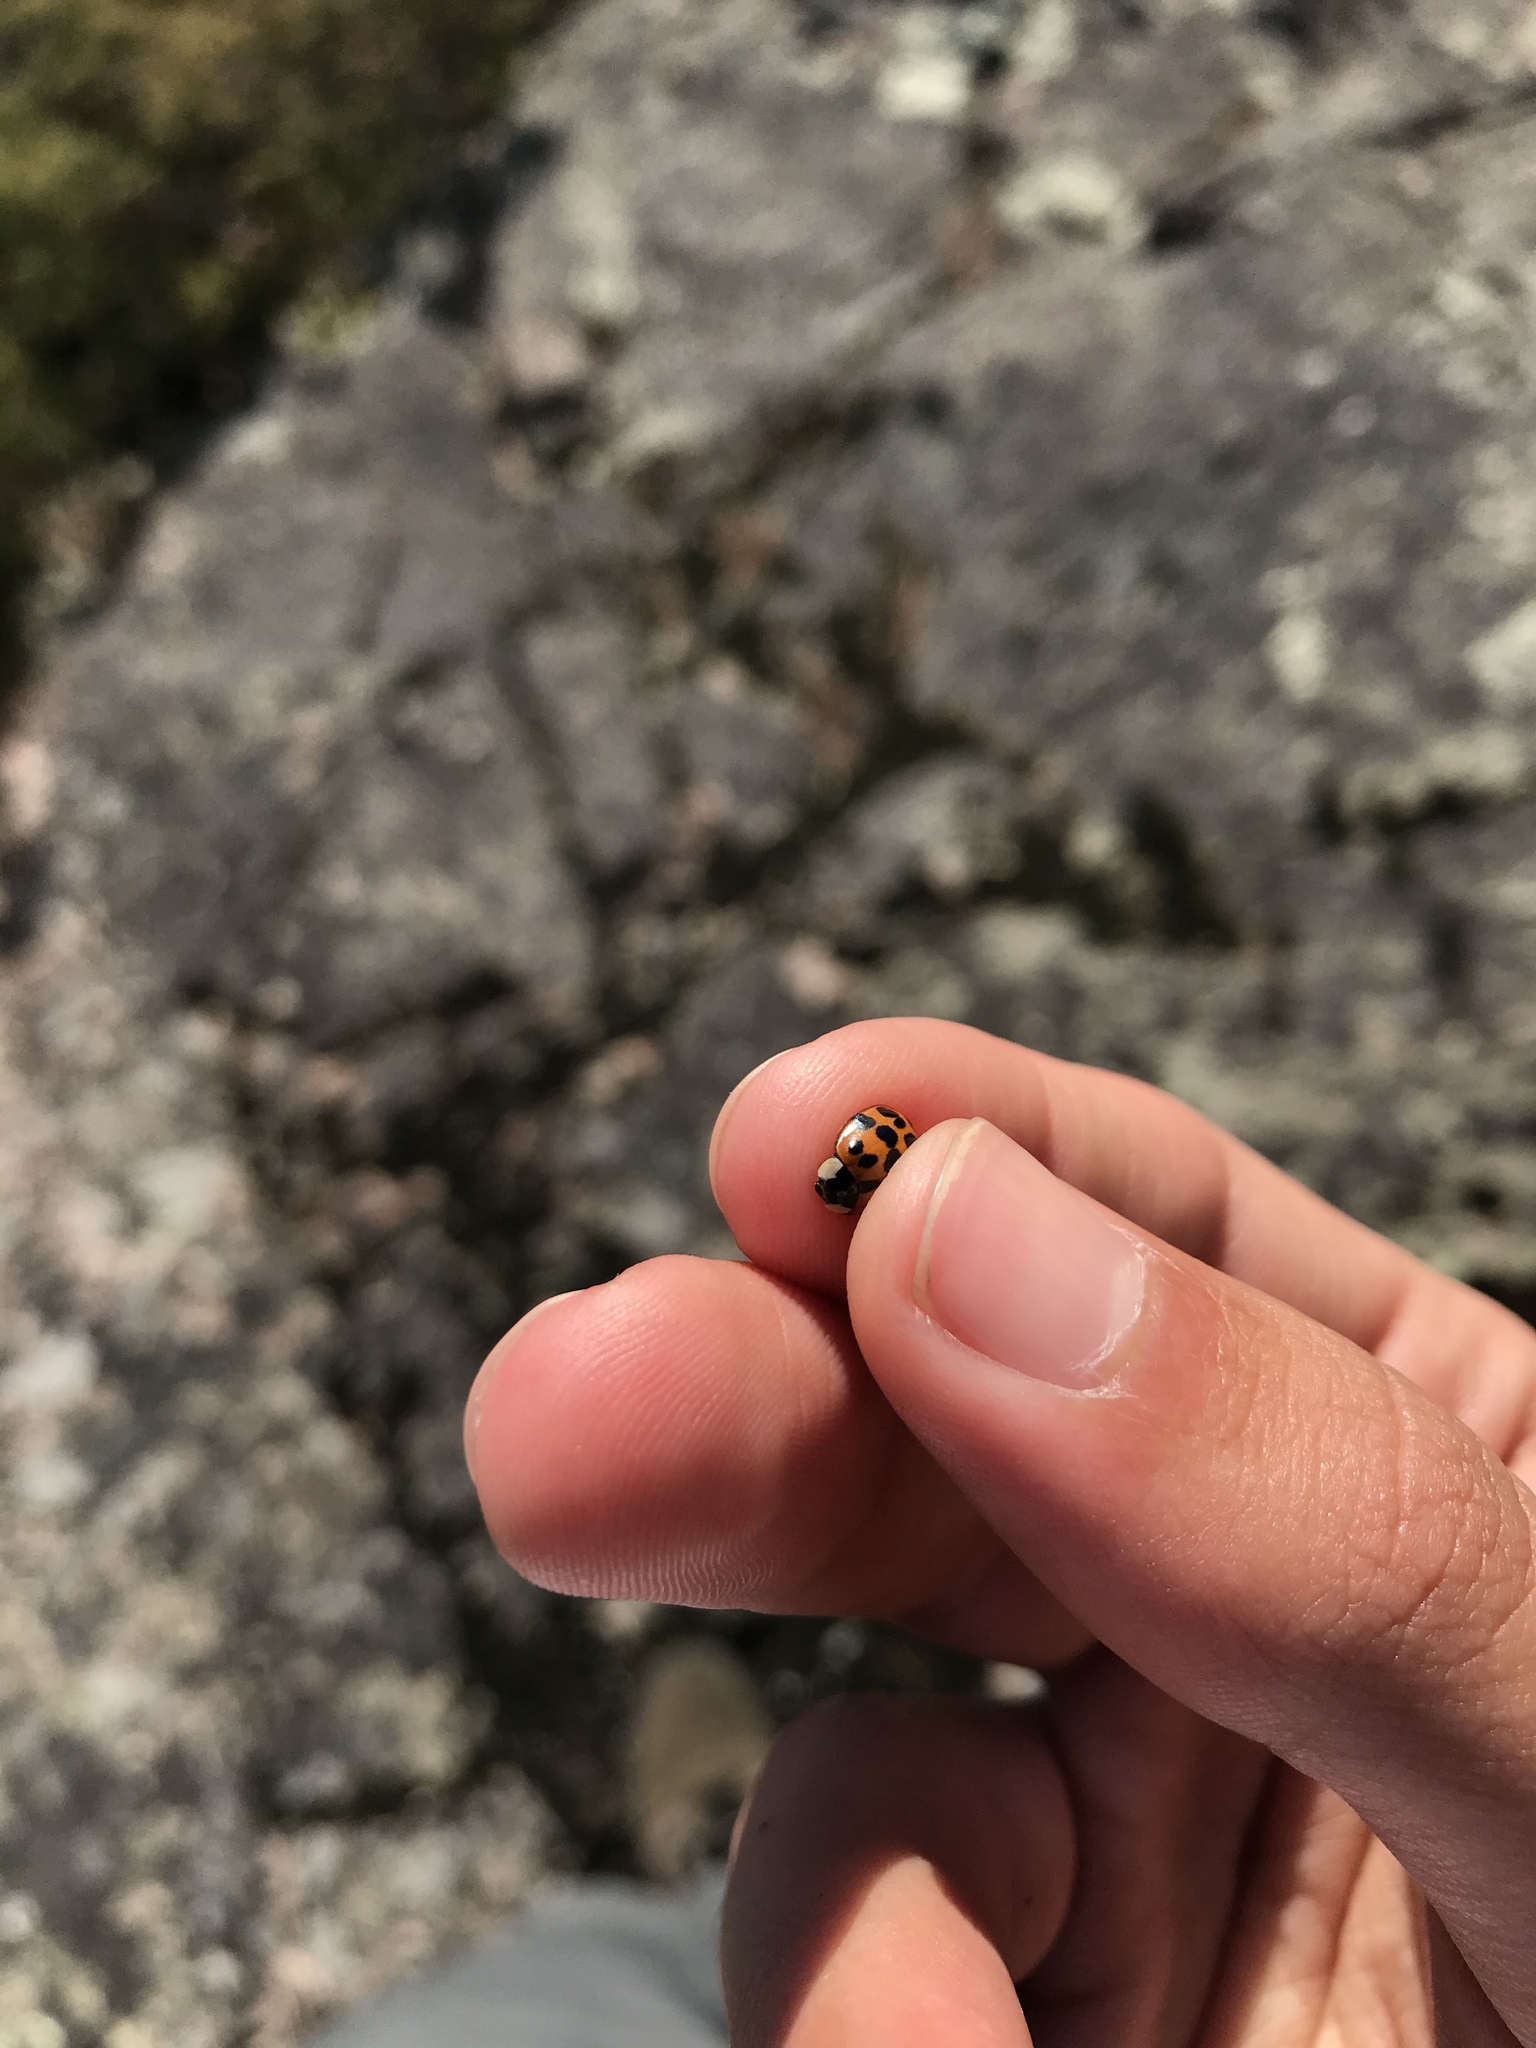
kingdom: Animalia
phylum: Arthropoda
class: Insecta
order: Coleoptera
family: Coccinellidae
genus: Harmonia
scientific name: Harmonia axyridis
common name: Harlequin ladybird
